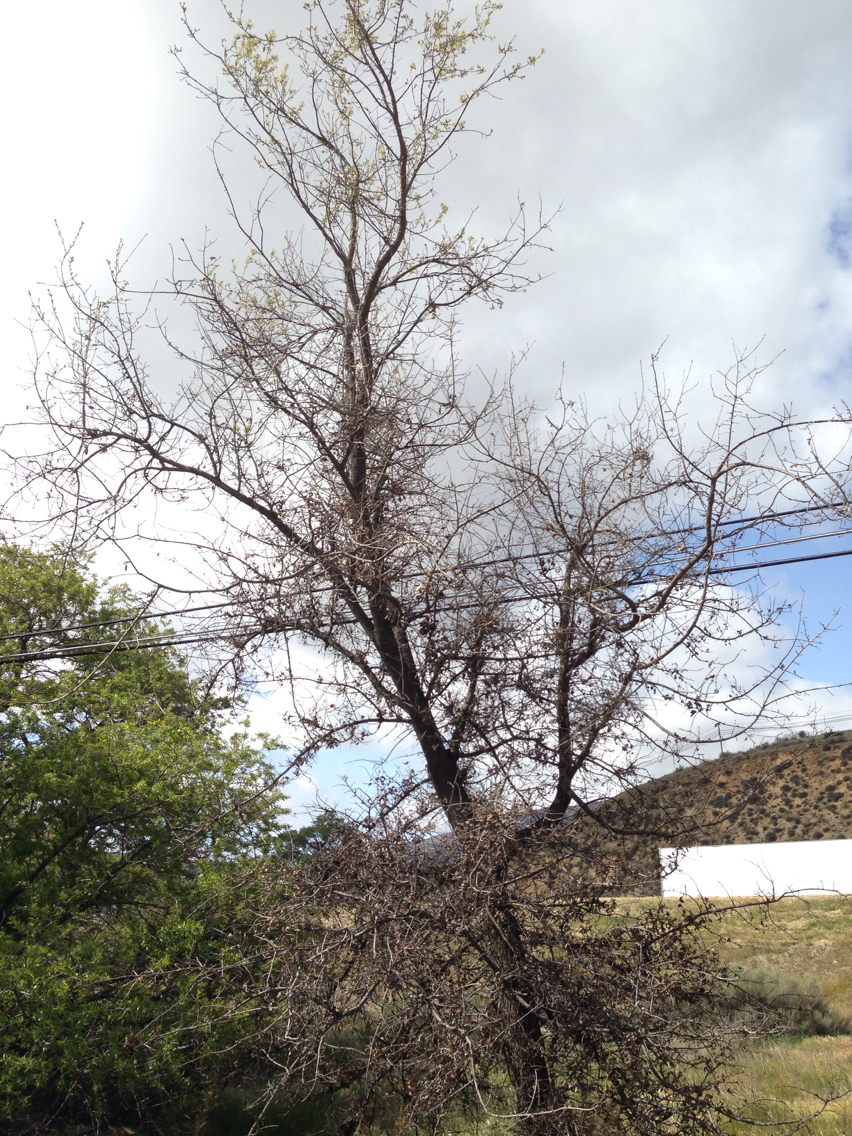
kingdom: Plantae
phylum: Tracheophyta
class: Magnoliopsida
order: Fagales
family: Fagaceae
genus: Quercus
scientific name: Quercus lobata
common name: Valley oak
